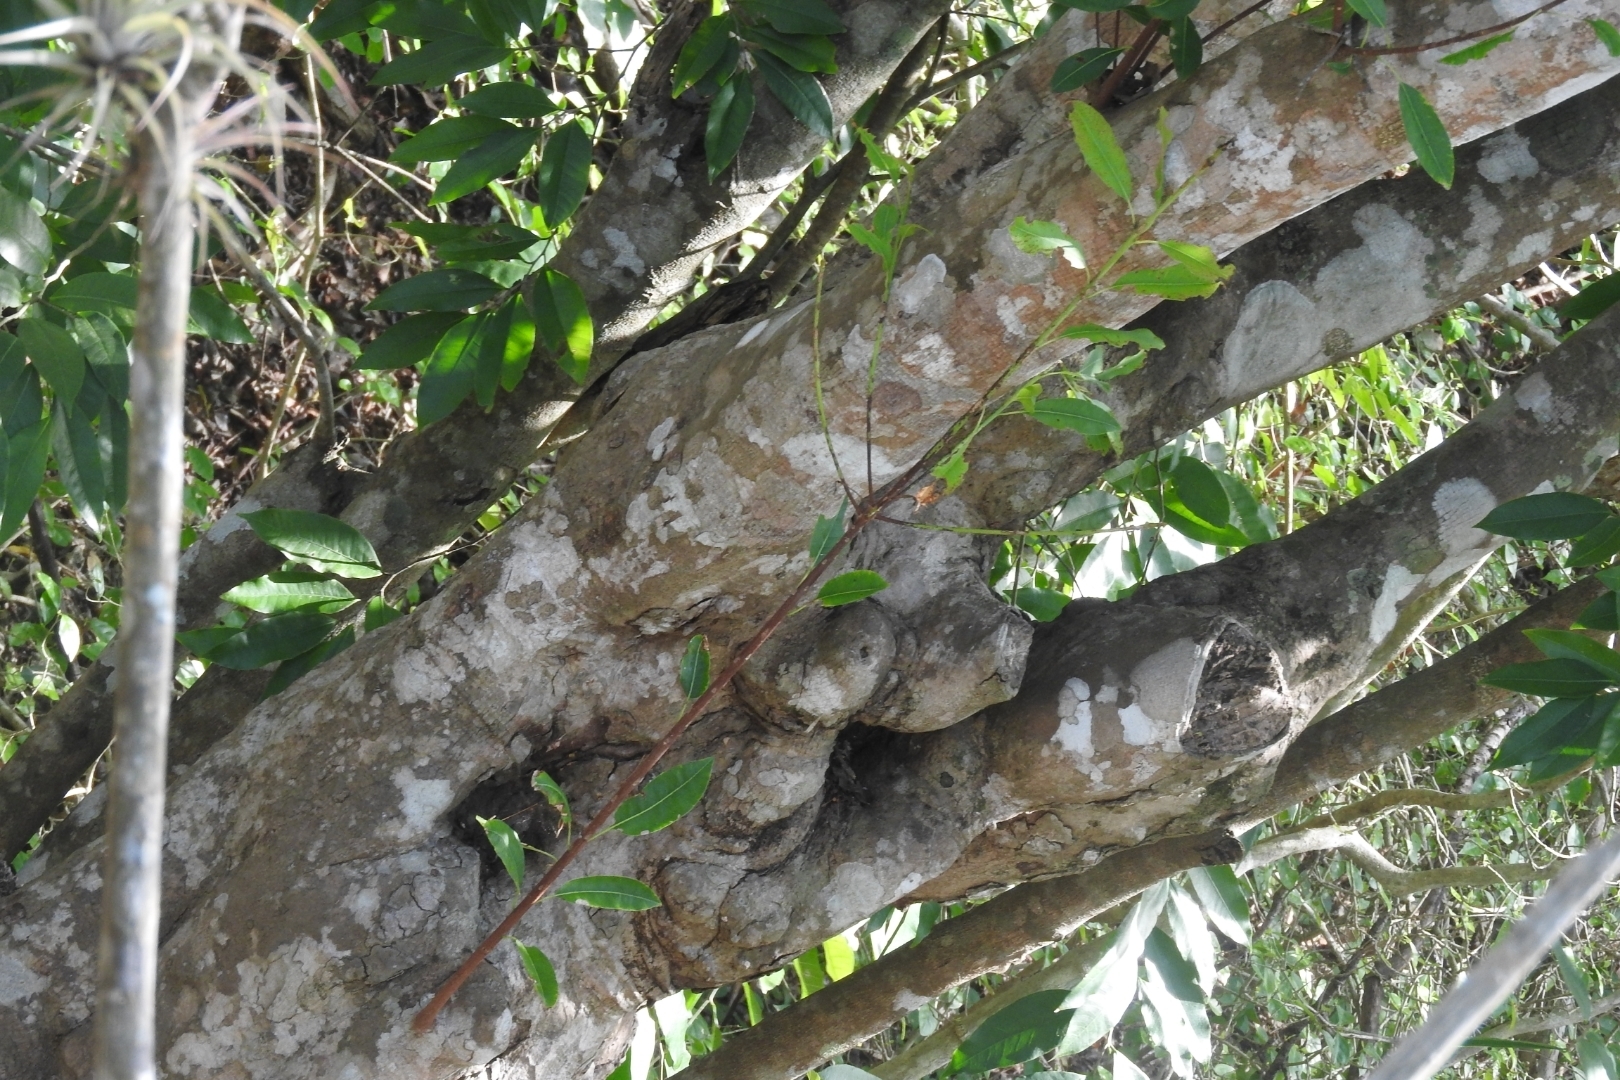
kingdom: Plantae
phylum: Tracheophyta
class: Magnoliopsida
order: Rosales
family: Moraceae
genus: Brosimum
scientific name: Brosimum alicastrum
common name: Breadnut
